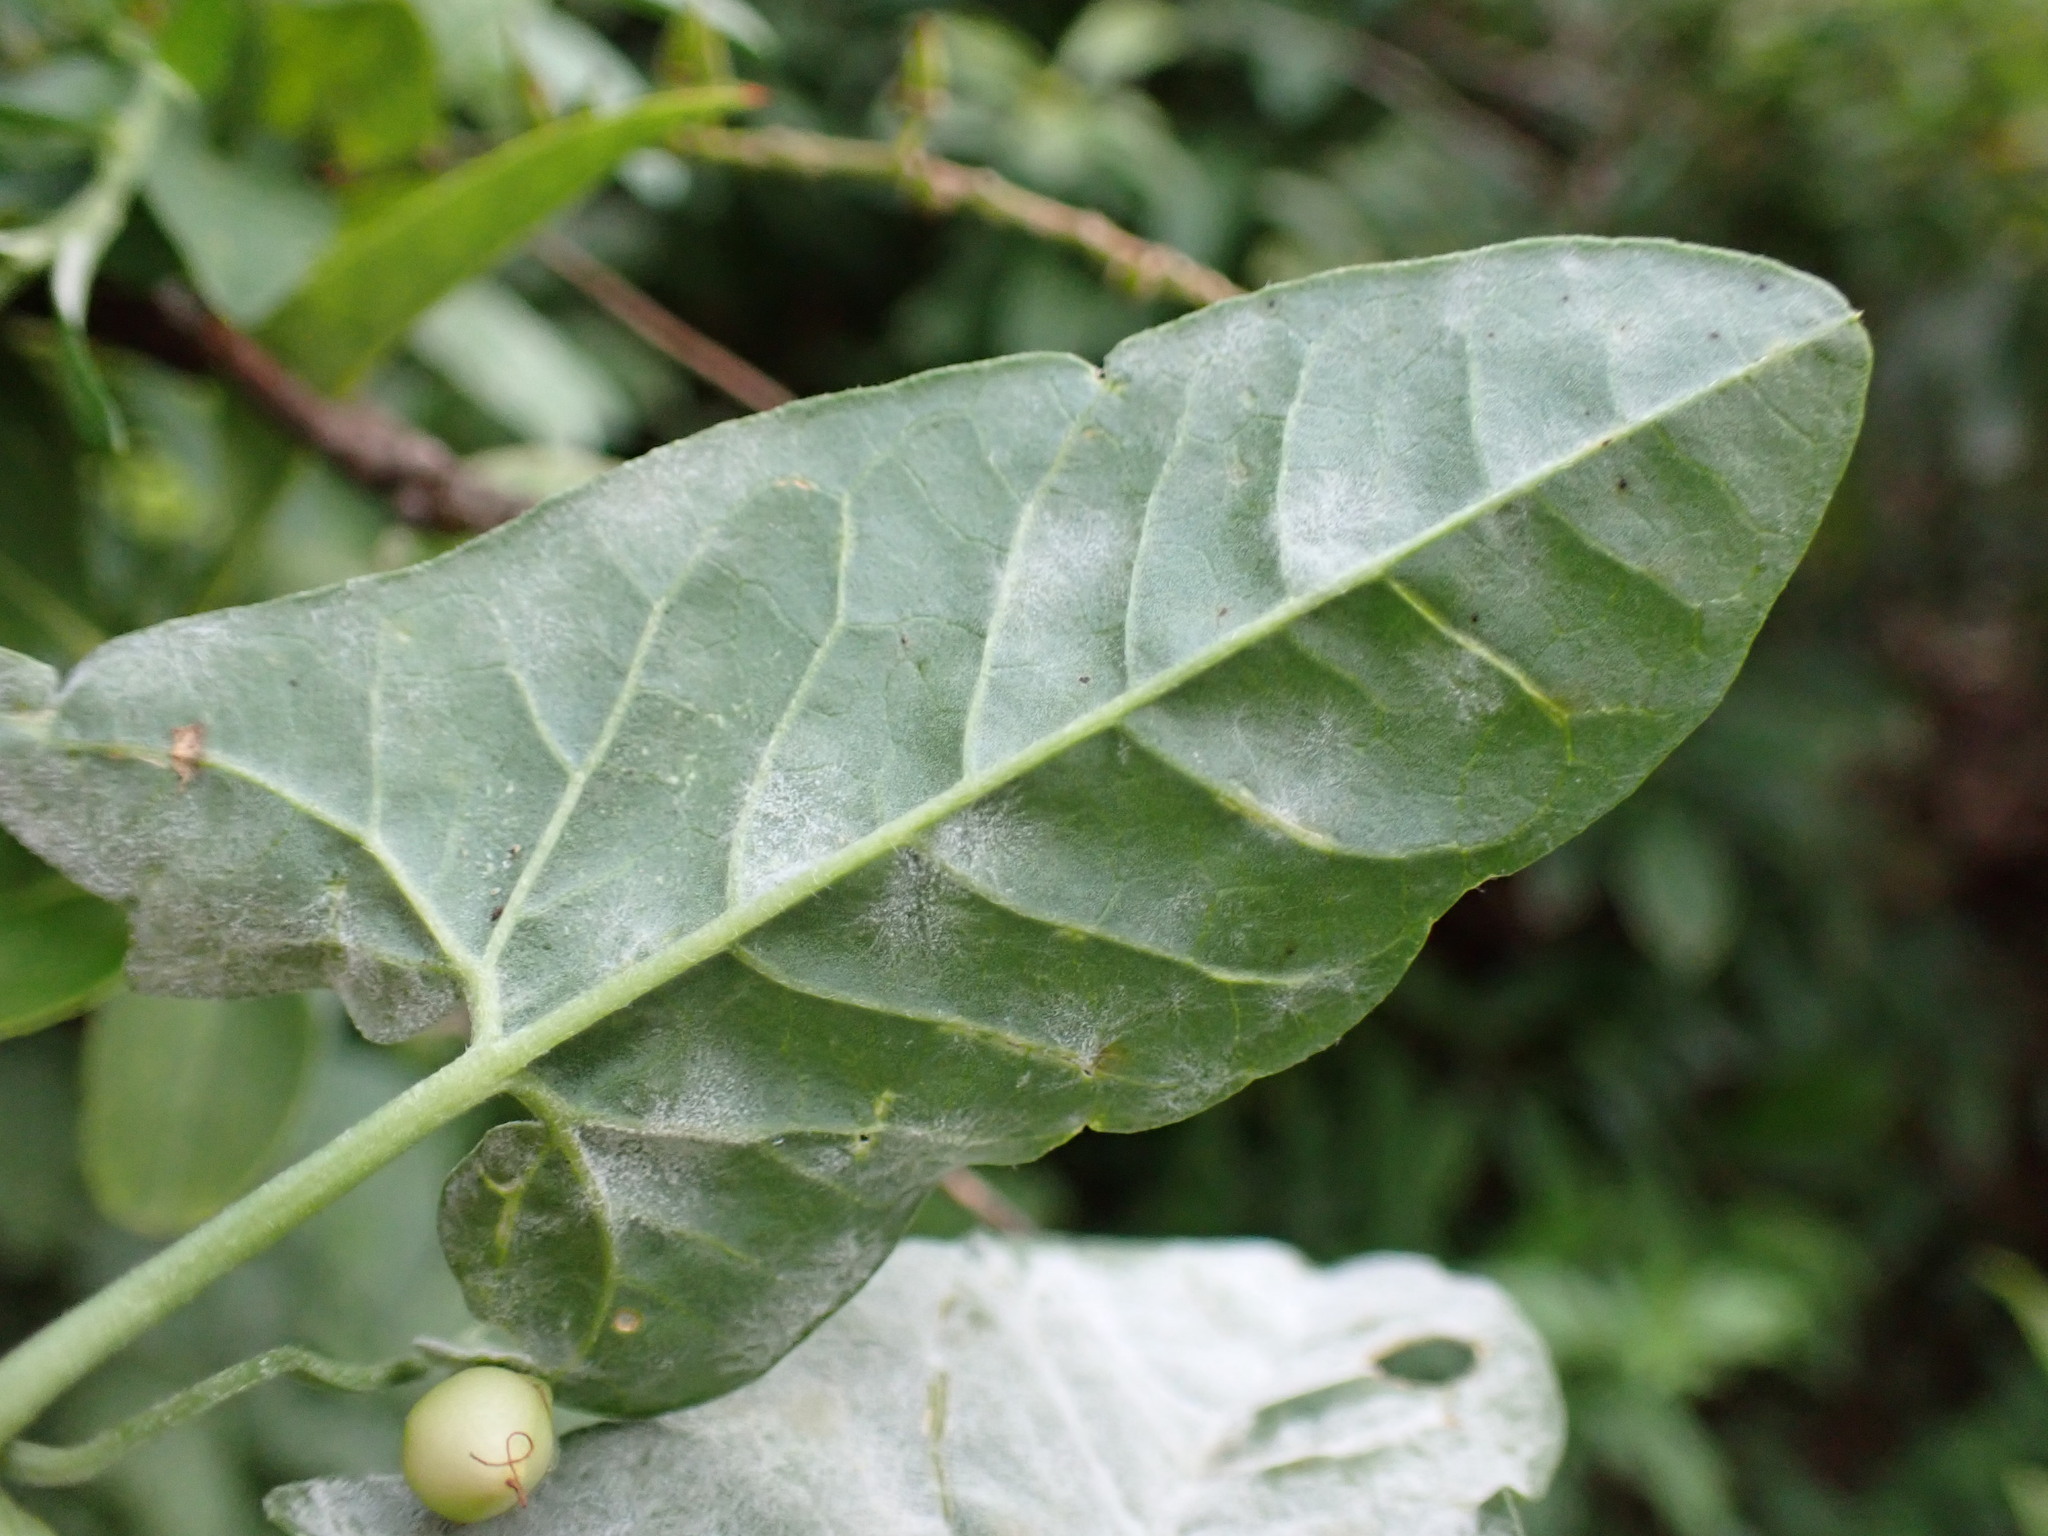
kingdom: Fungi
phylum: Ascomycota
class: Leotiomycetes
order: Helotiales
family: Erysiphaceae
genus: Erysiphe
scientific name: Erysiphe convolvuli
